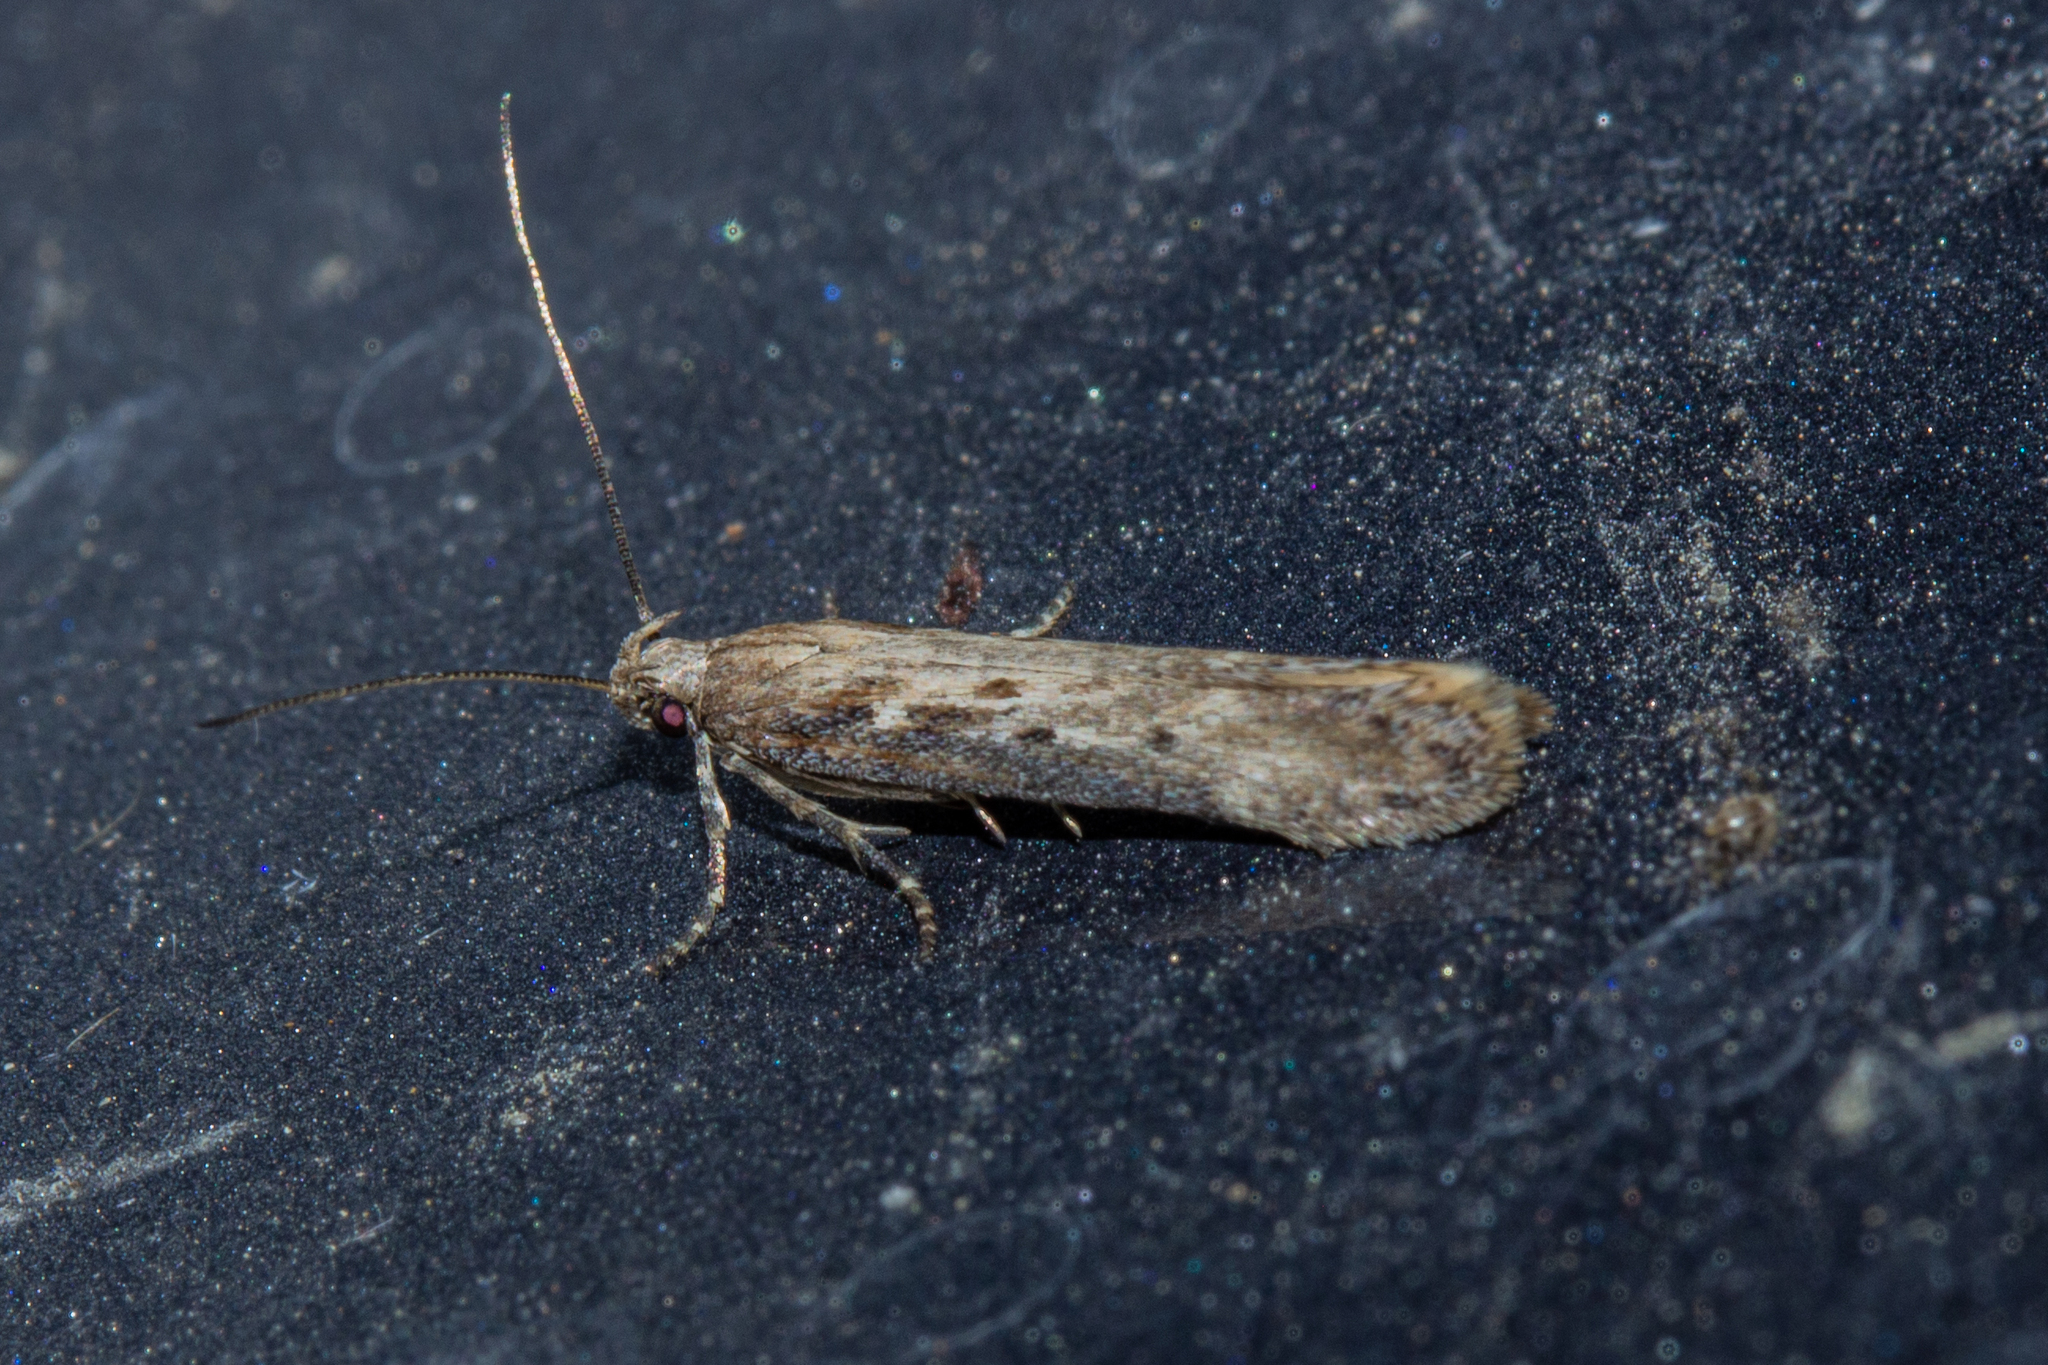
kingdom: Animalia
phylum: Arthropoda
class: Insecta
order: Lepidoptera
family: Gelechiidae
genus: Kiwaia
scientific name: Kiwaia brontophora
